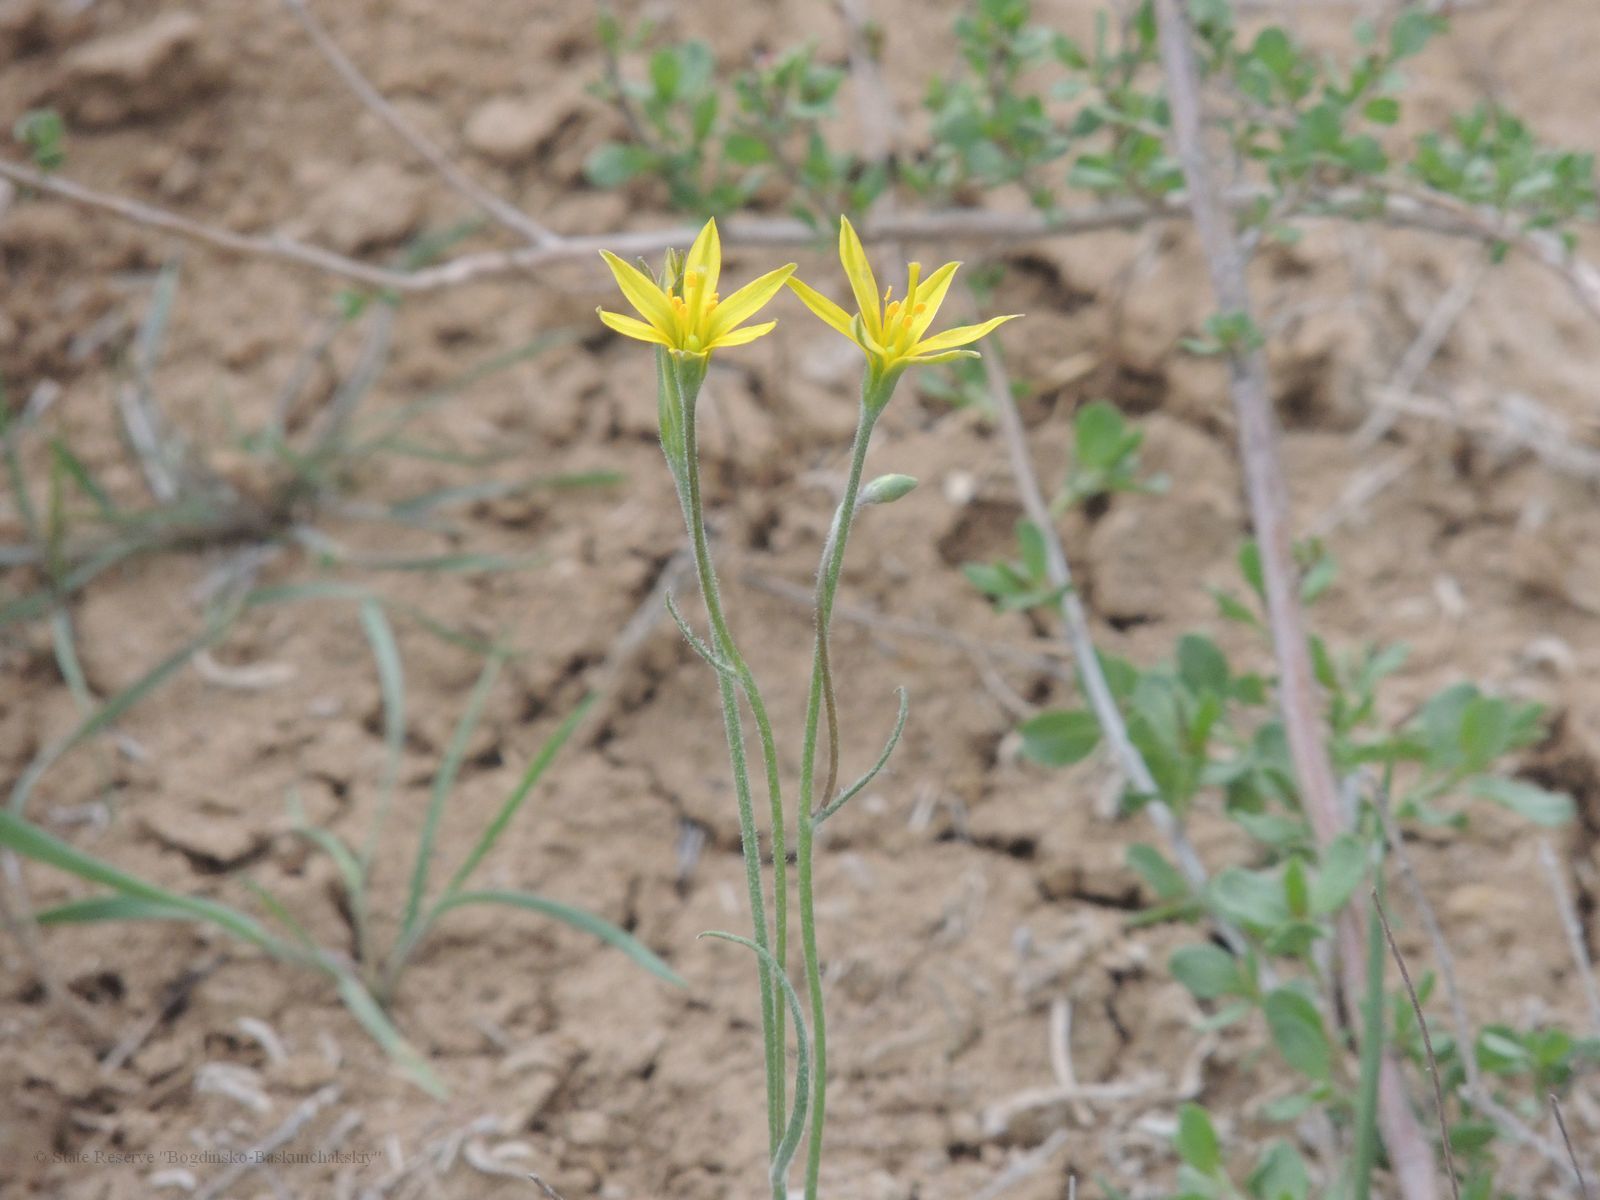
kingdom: Plantae
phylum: Tracheophyta
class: Liliopsida
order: Liliales
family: Liliaceae
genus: Gagea
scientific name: Gagea bulbifera
